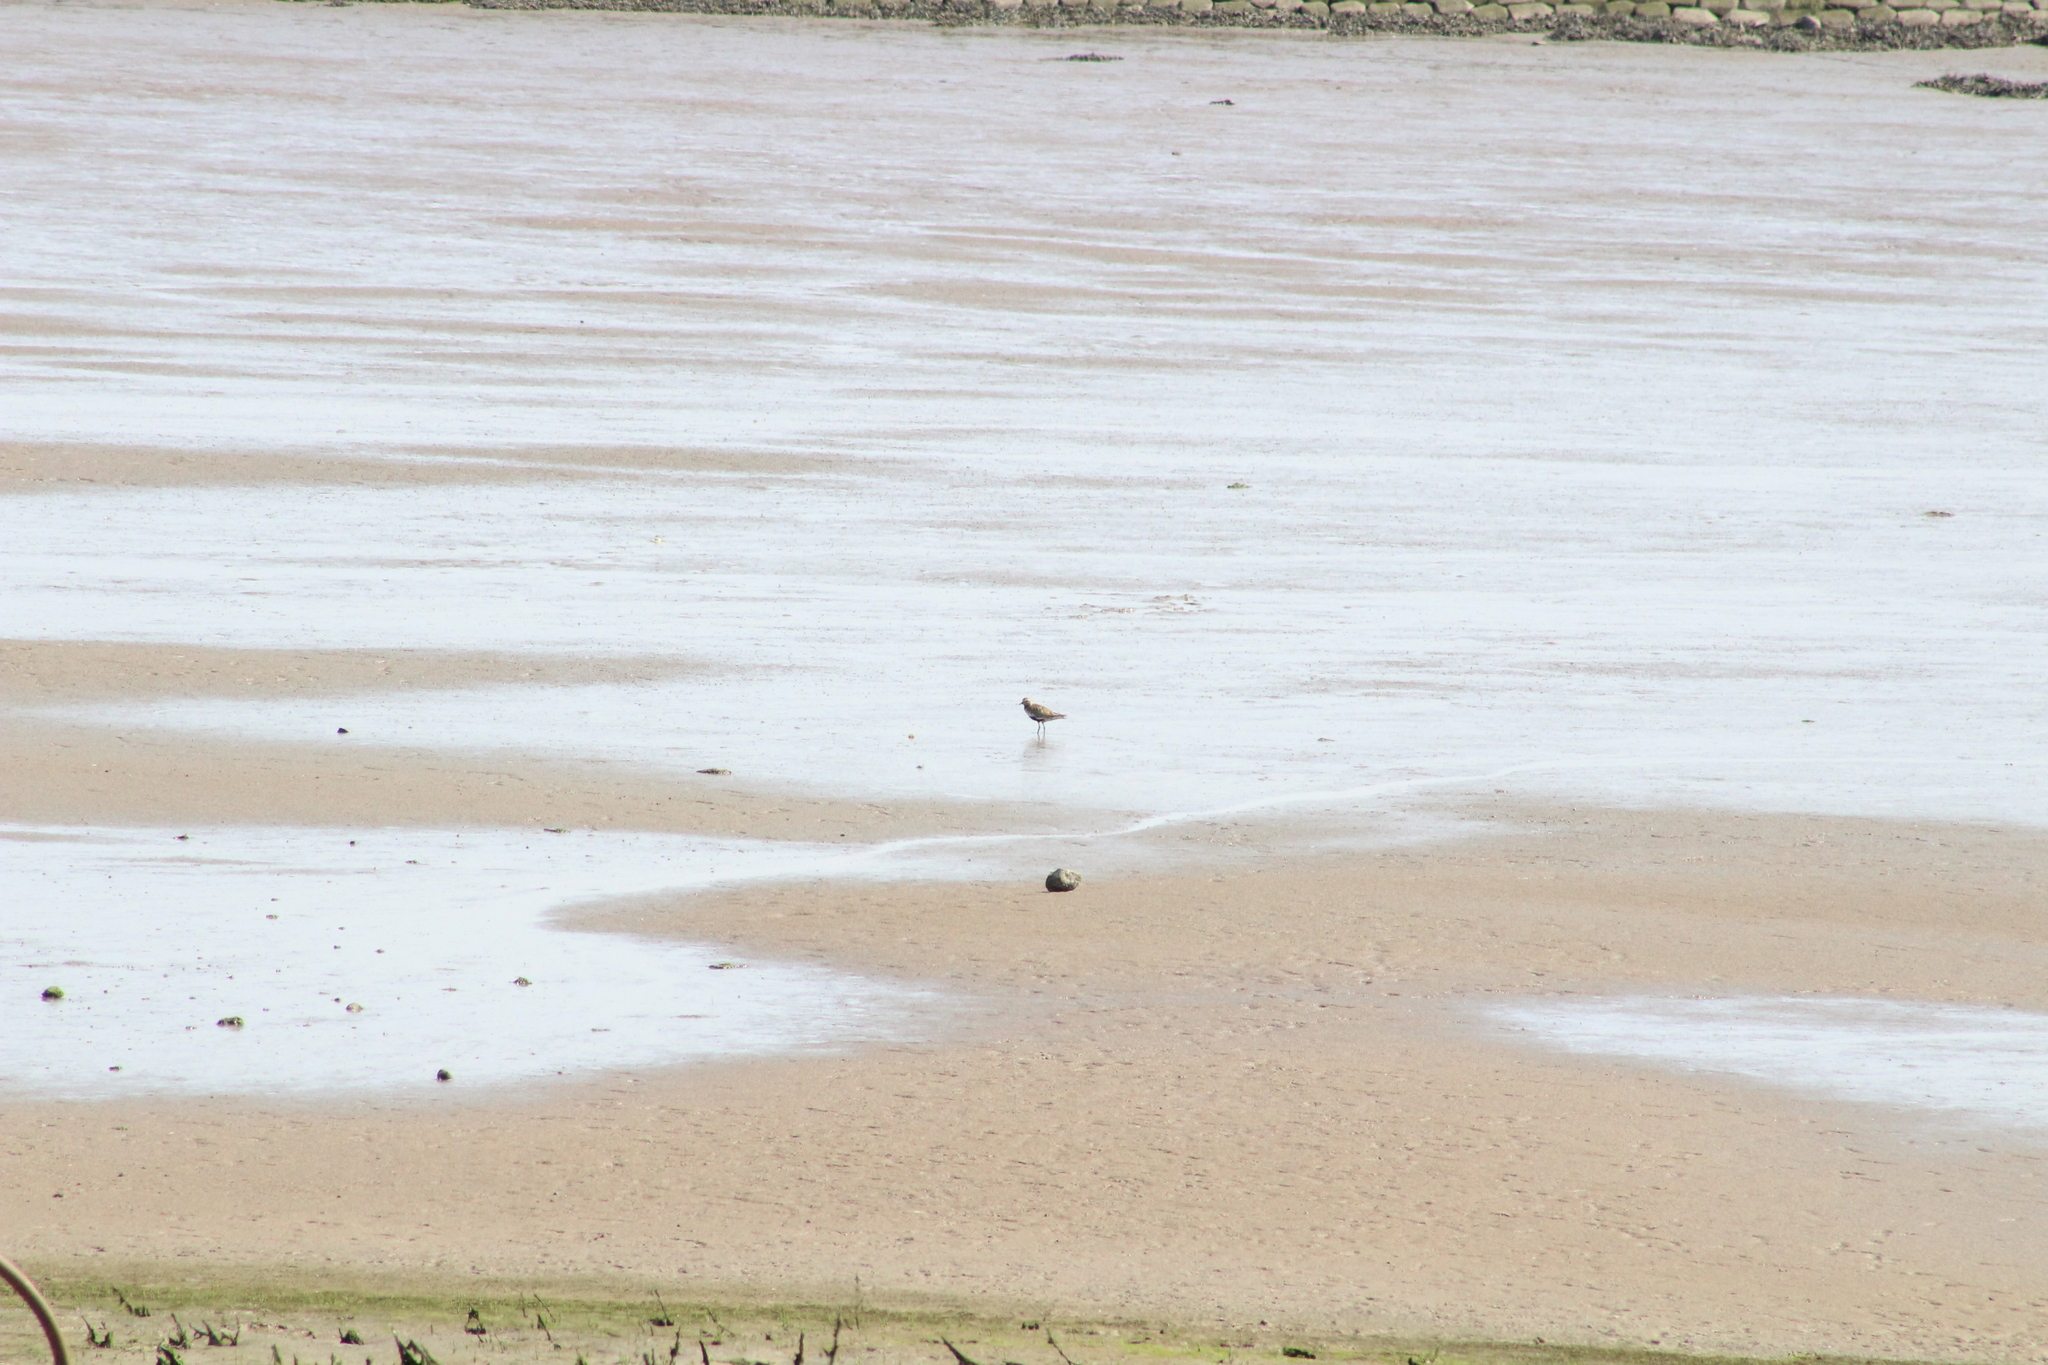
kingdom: Animalia
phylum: Chordata
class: Aves
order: Charadriiformes
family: Charadriidae
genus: Pluvialis
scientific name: Pluvialis apricaria
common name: European golden plover
